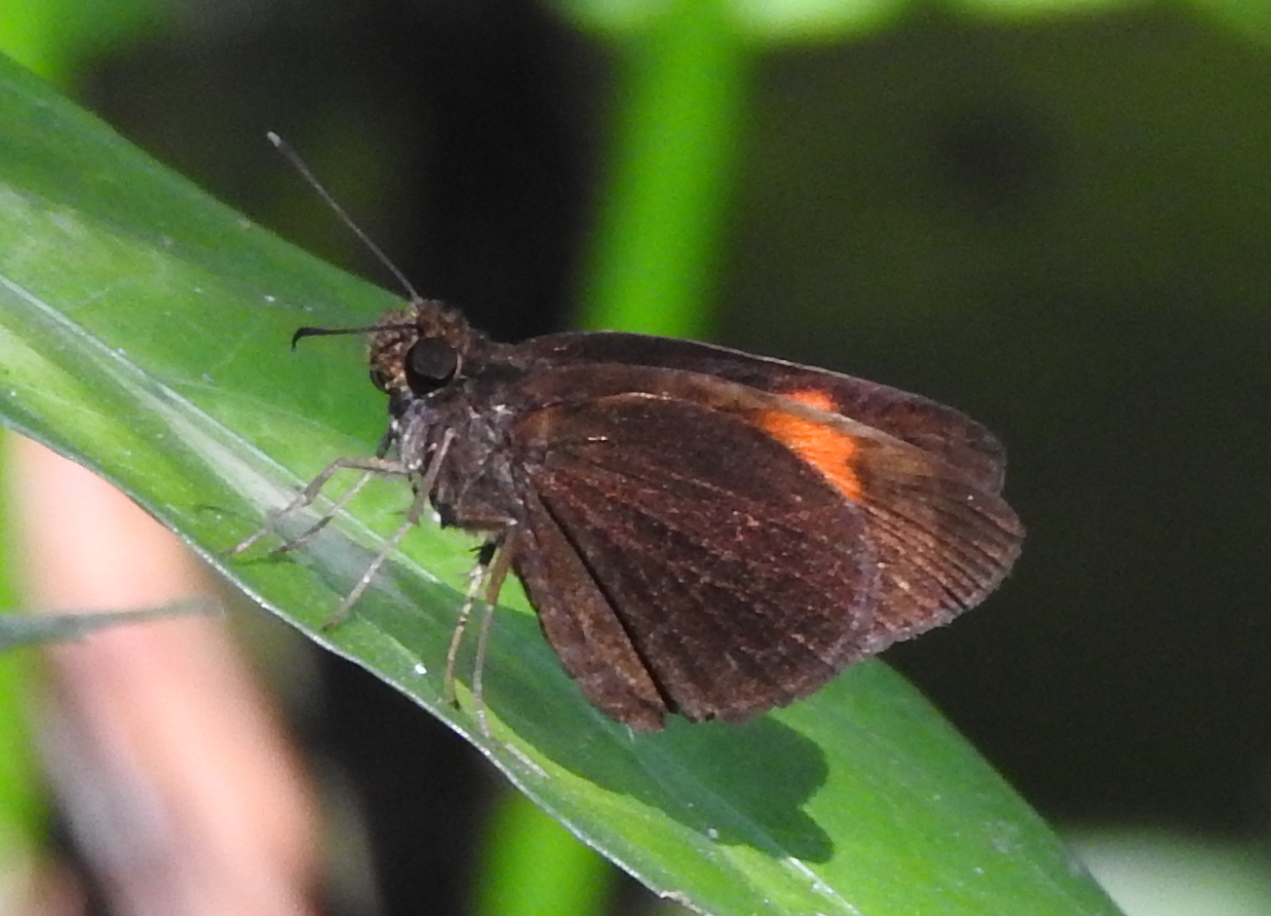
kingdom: Animalia
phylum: Arthropoda
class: Insecta
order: Lepidoptera
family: Hesperiidae
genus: Koruthaialos
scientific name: Koruthaialos sindu
